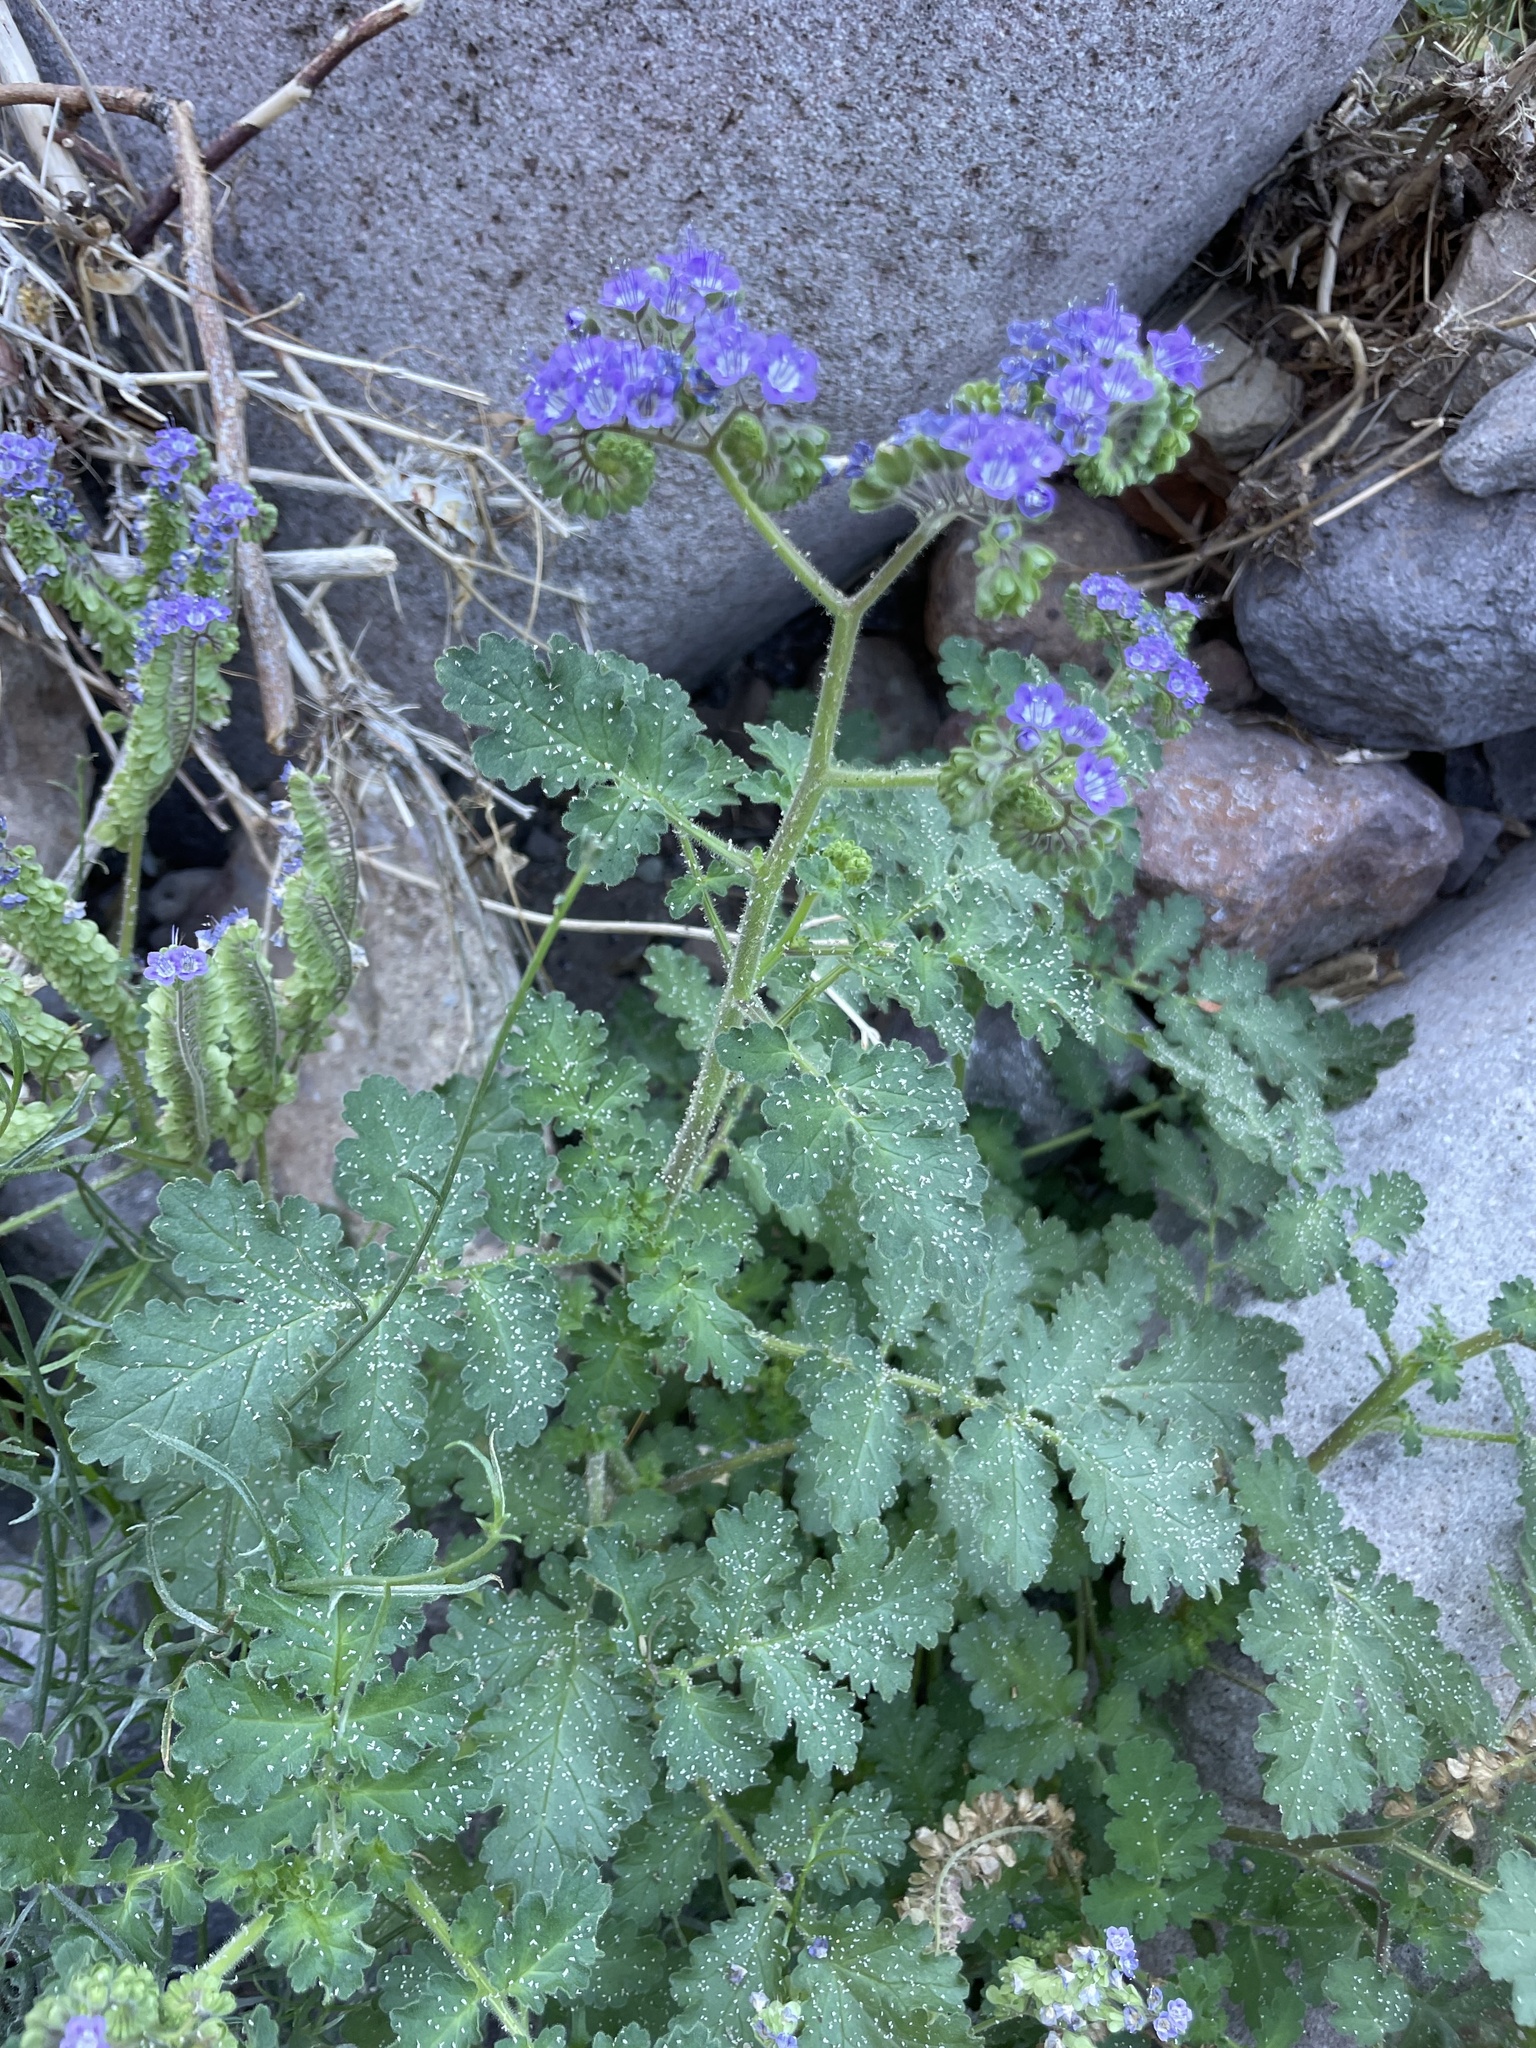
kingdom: Plantae
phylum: Tracheophyta
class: Magnoliopsida
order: Boraginales
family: Hydrophyllaceae
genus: Phacelia
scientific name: Phacelia scariosa
